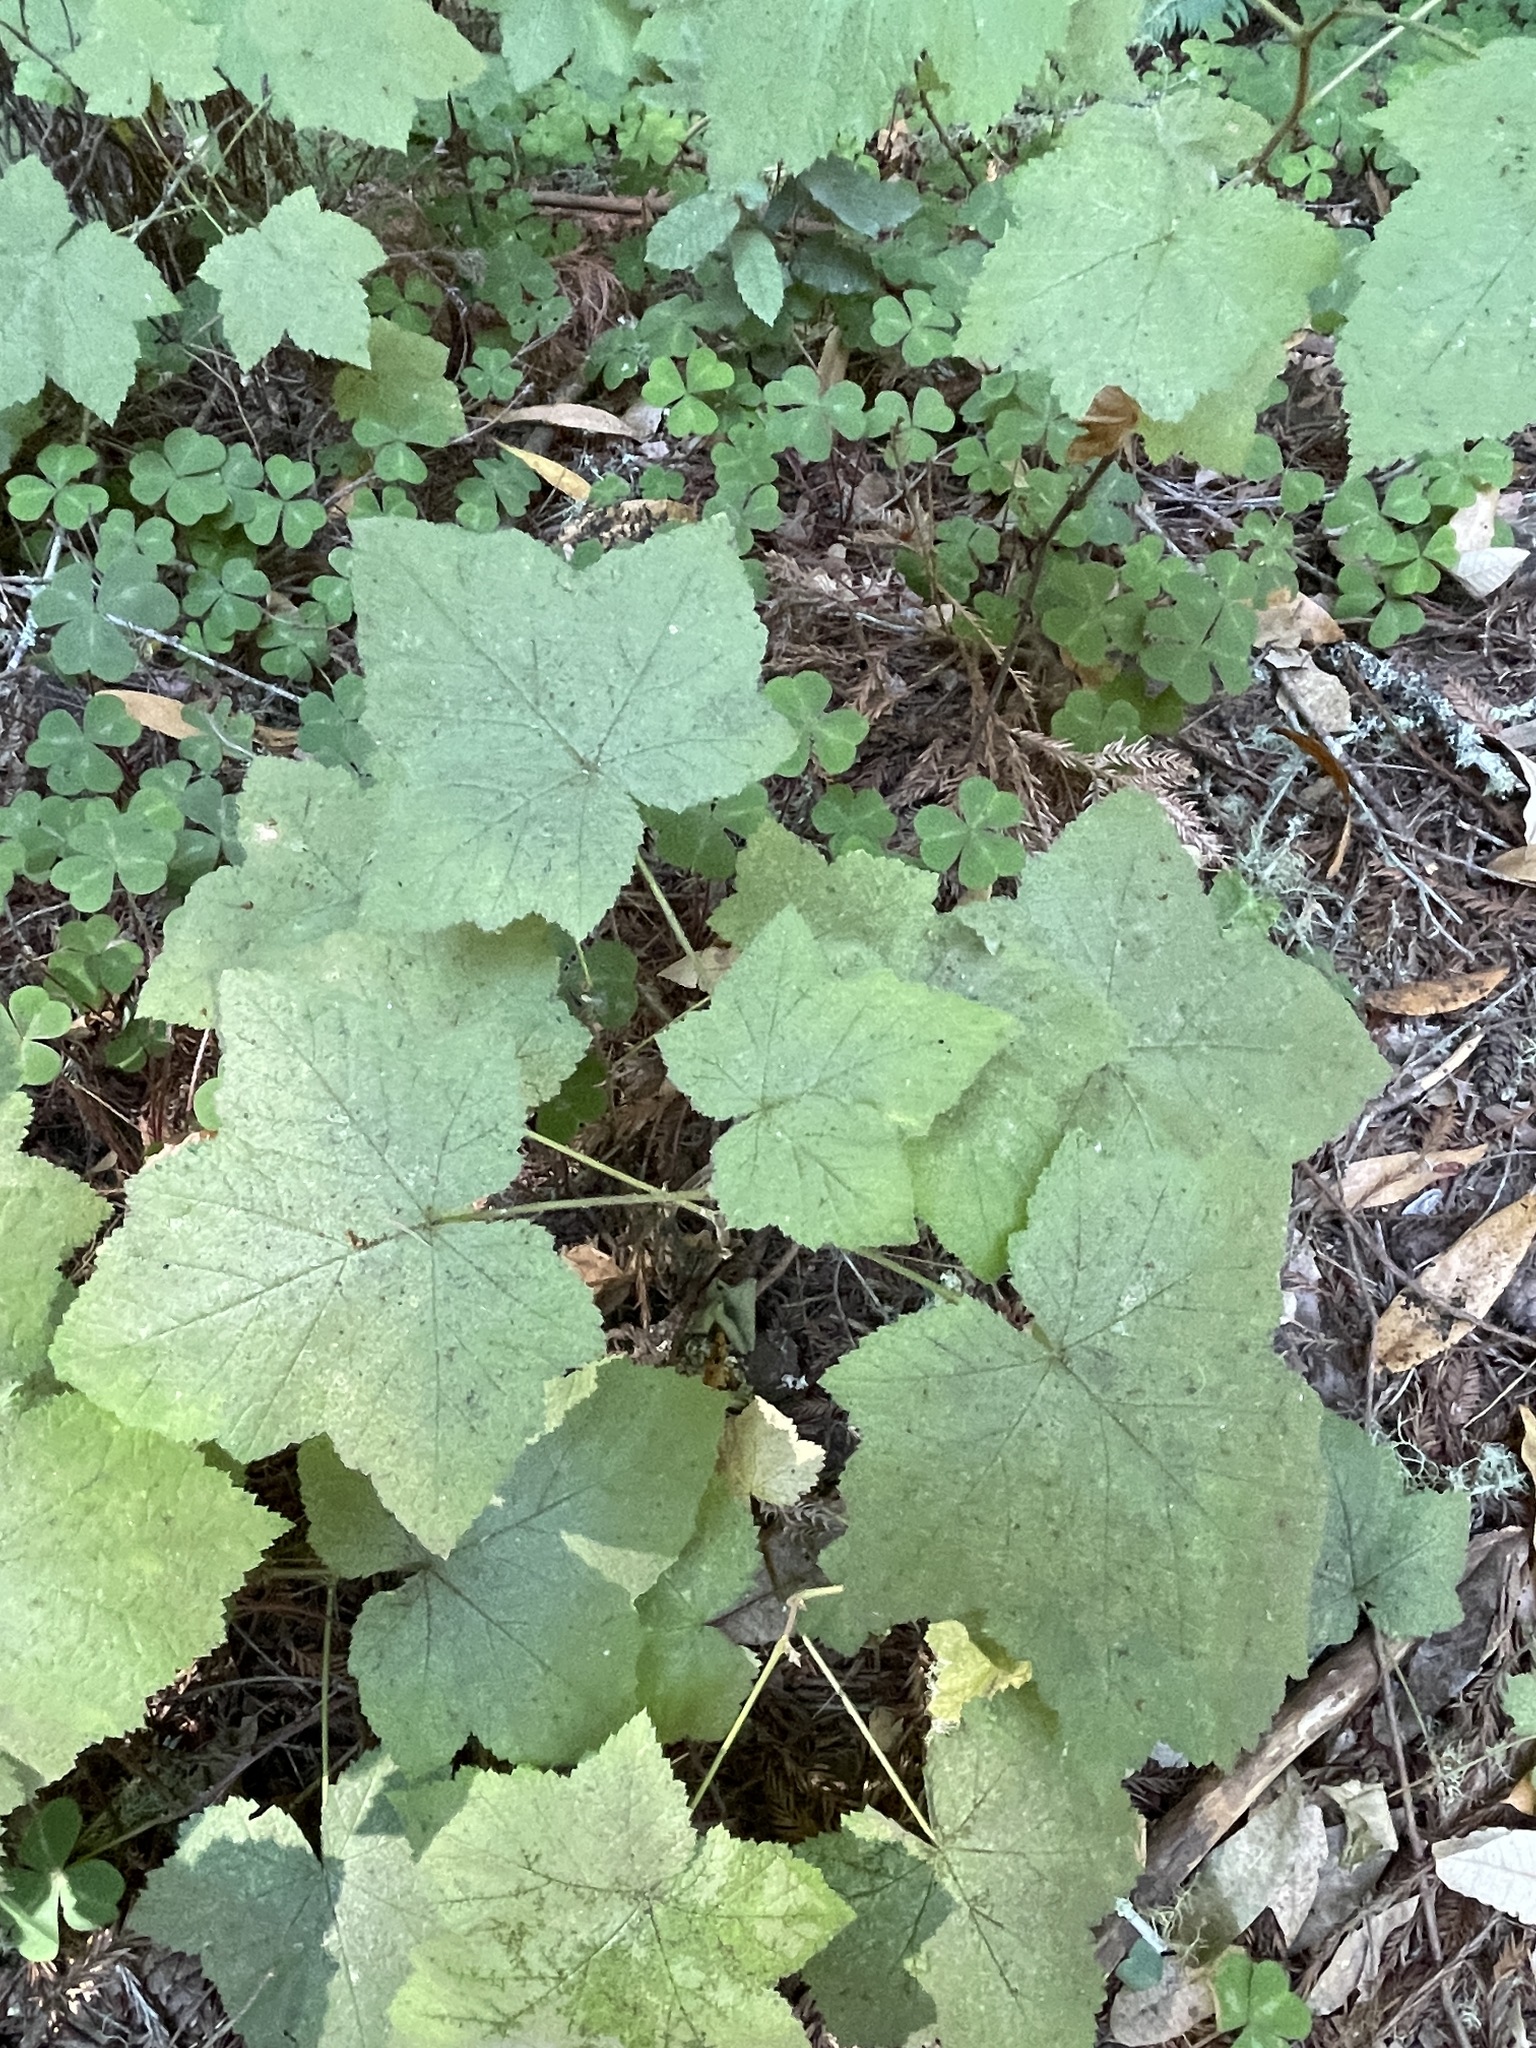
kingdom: Plantae
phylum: Tracheophyta
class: Magnoliopsida
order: Rosales
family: Rosaceae
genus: Rubus
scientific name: Rubus parviflorus
